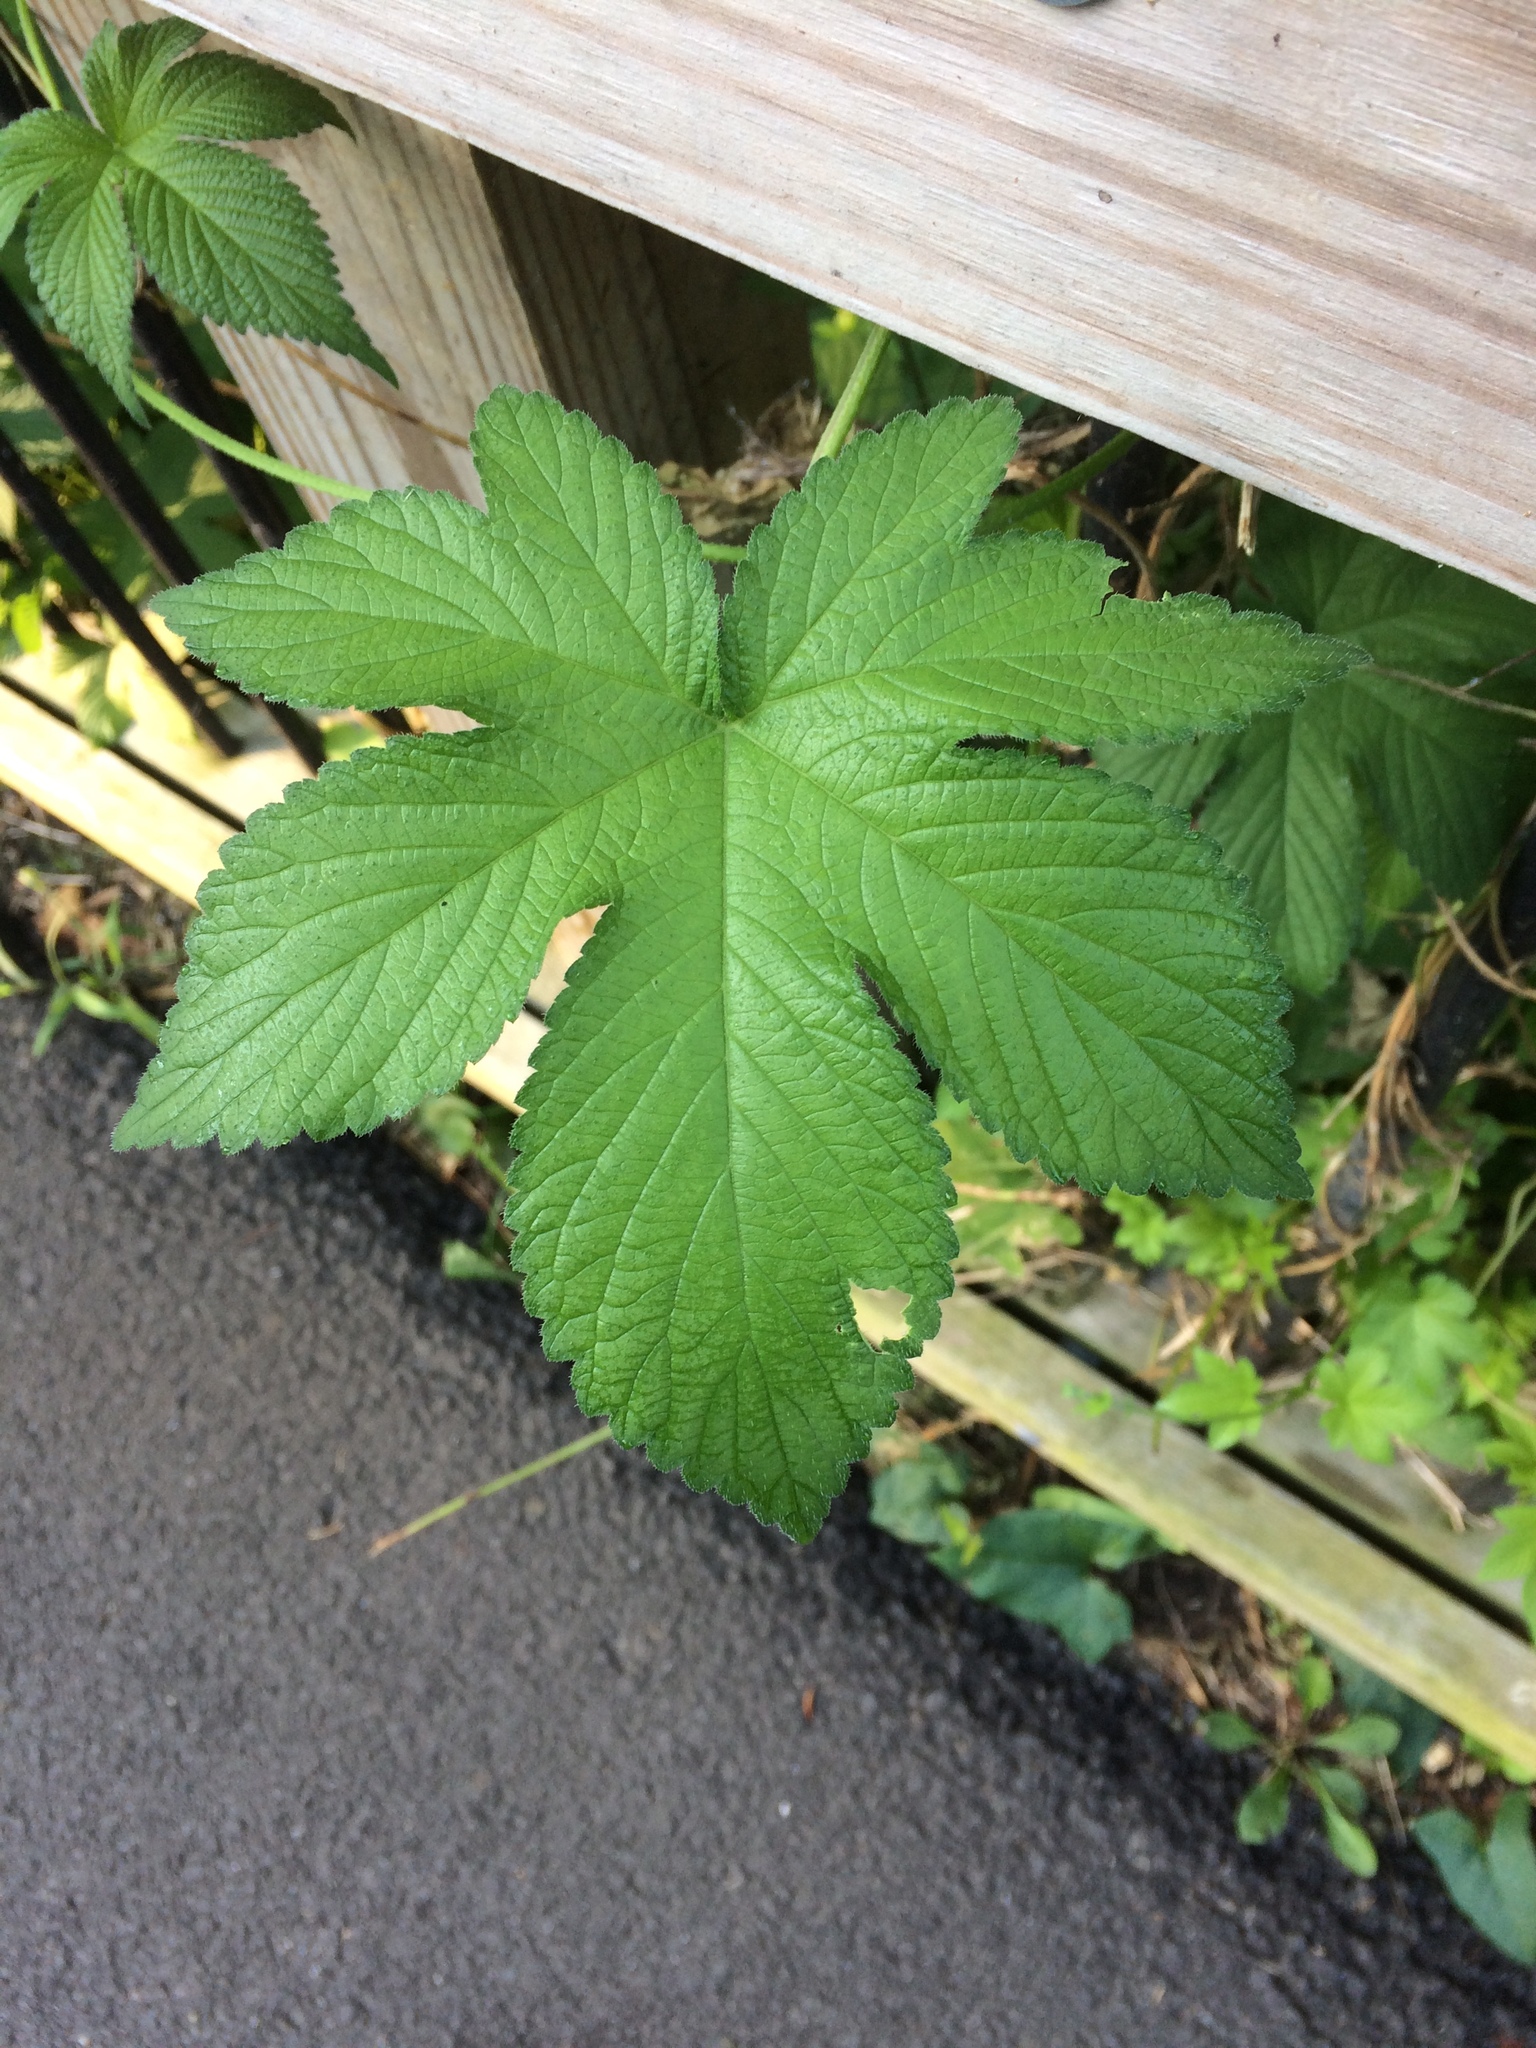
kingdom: Plantae
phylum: Tracheophyta
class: Magnoliopsida
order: Rosales
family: Cannabaceae
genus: Humulus
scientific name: Humulus scandens
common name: Japanese hop
